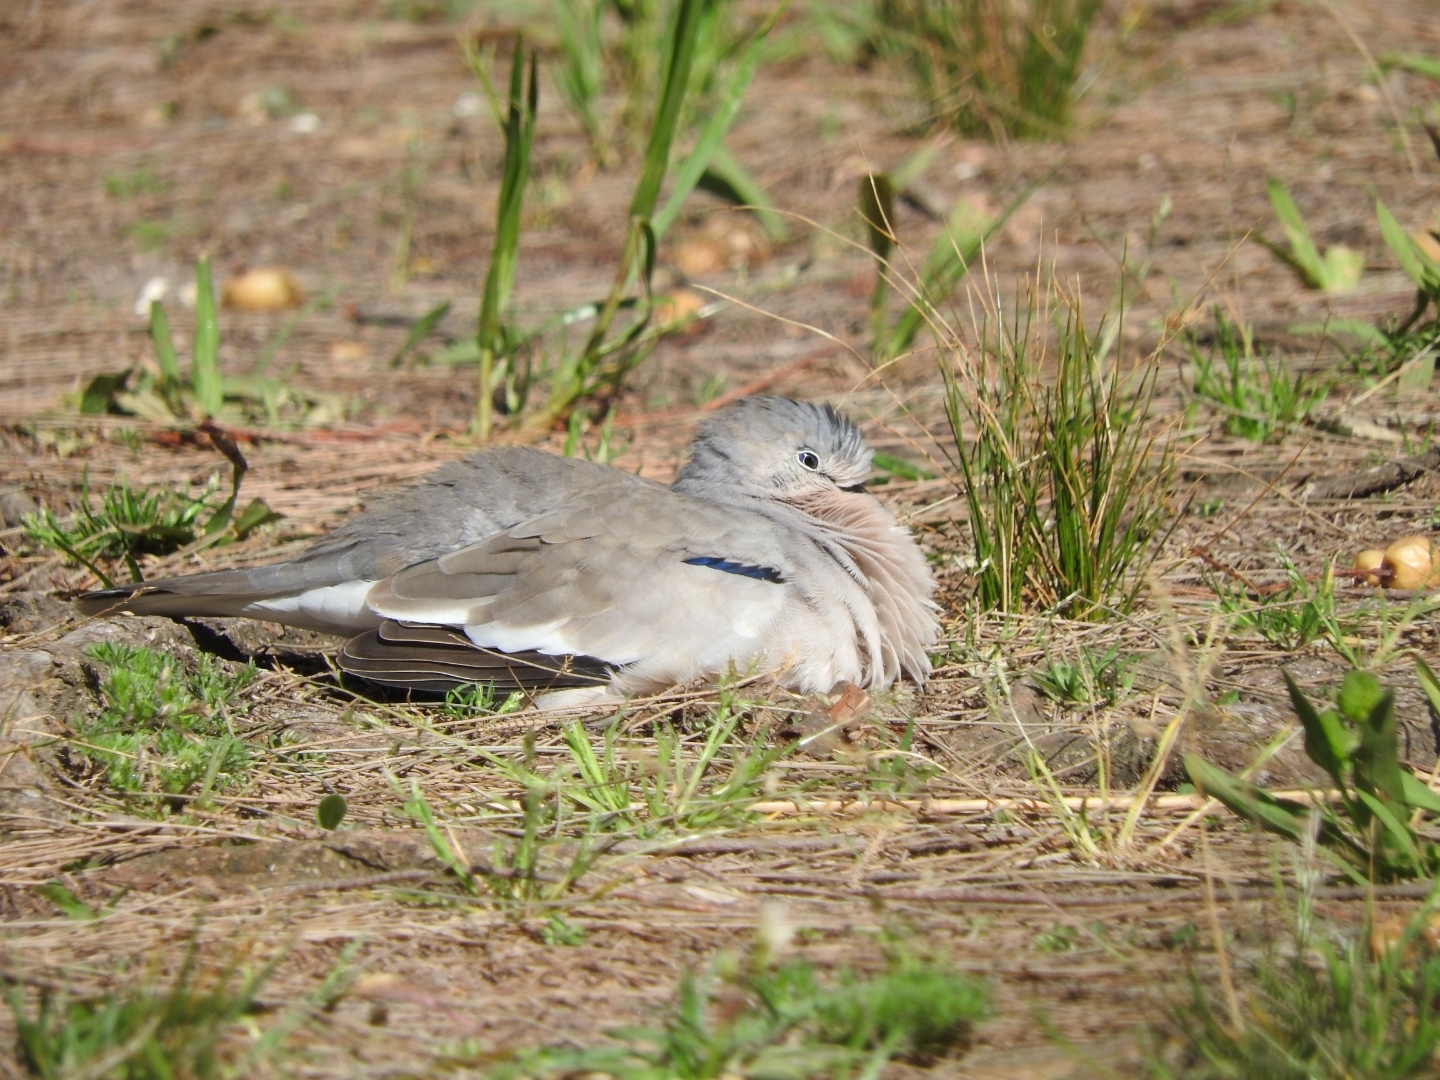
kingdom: Animalia
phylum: Chordata
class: Aves
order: Columbiformes
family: Columbidae
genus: Columbina
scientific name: Columbina picui
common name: Picui ground dove
